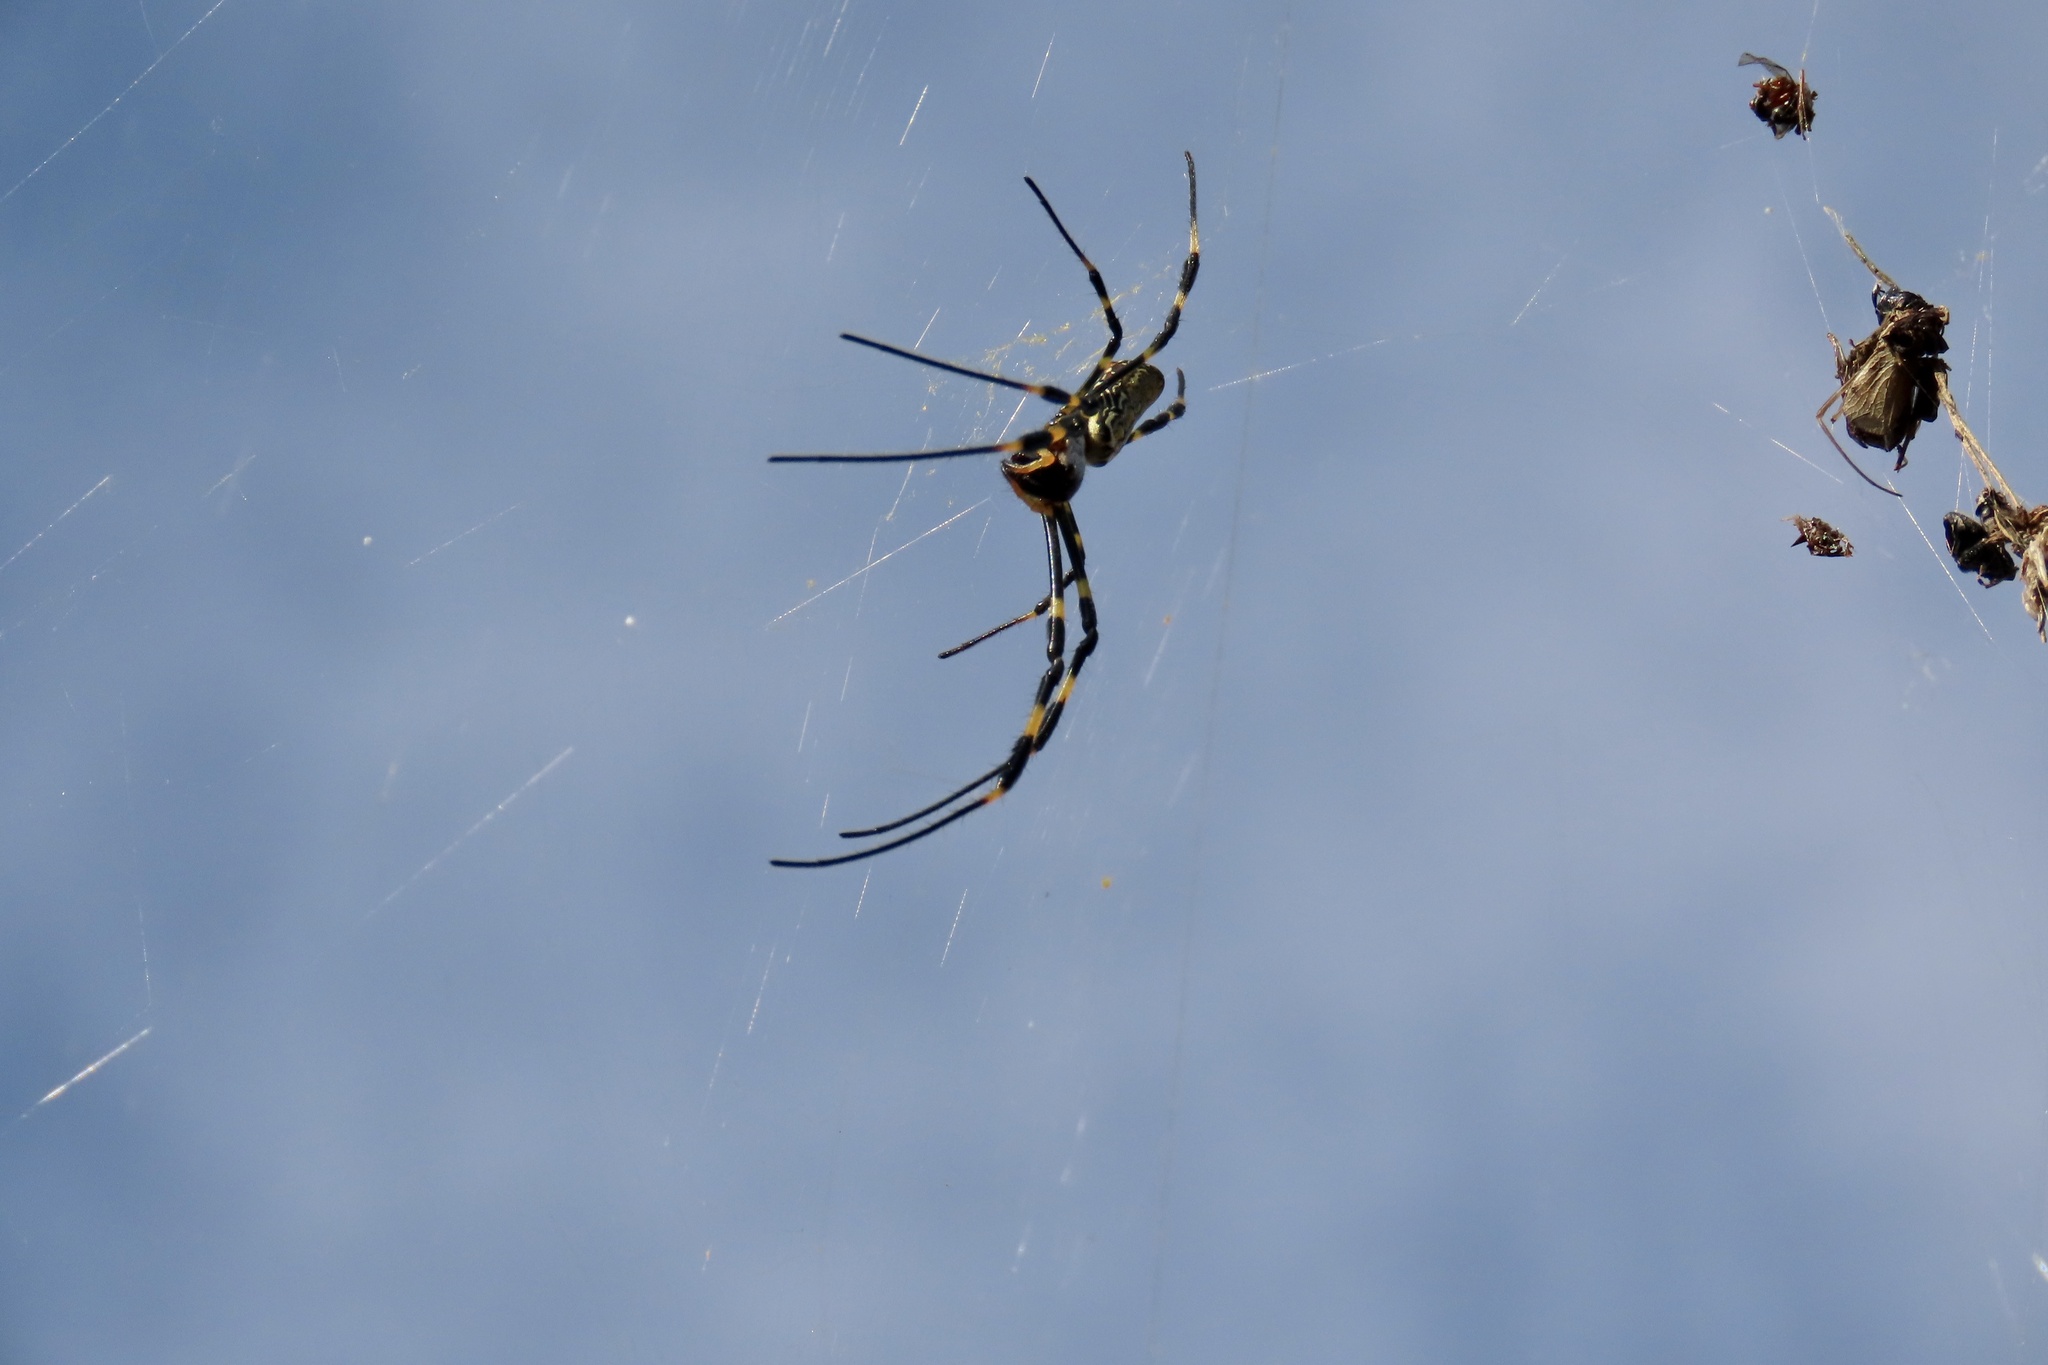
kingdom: Animalia
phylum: Arthropoda
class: Arachnida
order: Araneae
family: Araneidae
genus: Trichonephila
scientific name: Trichonephila clavata
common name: Jorō spider
